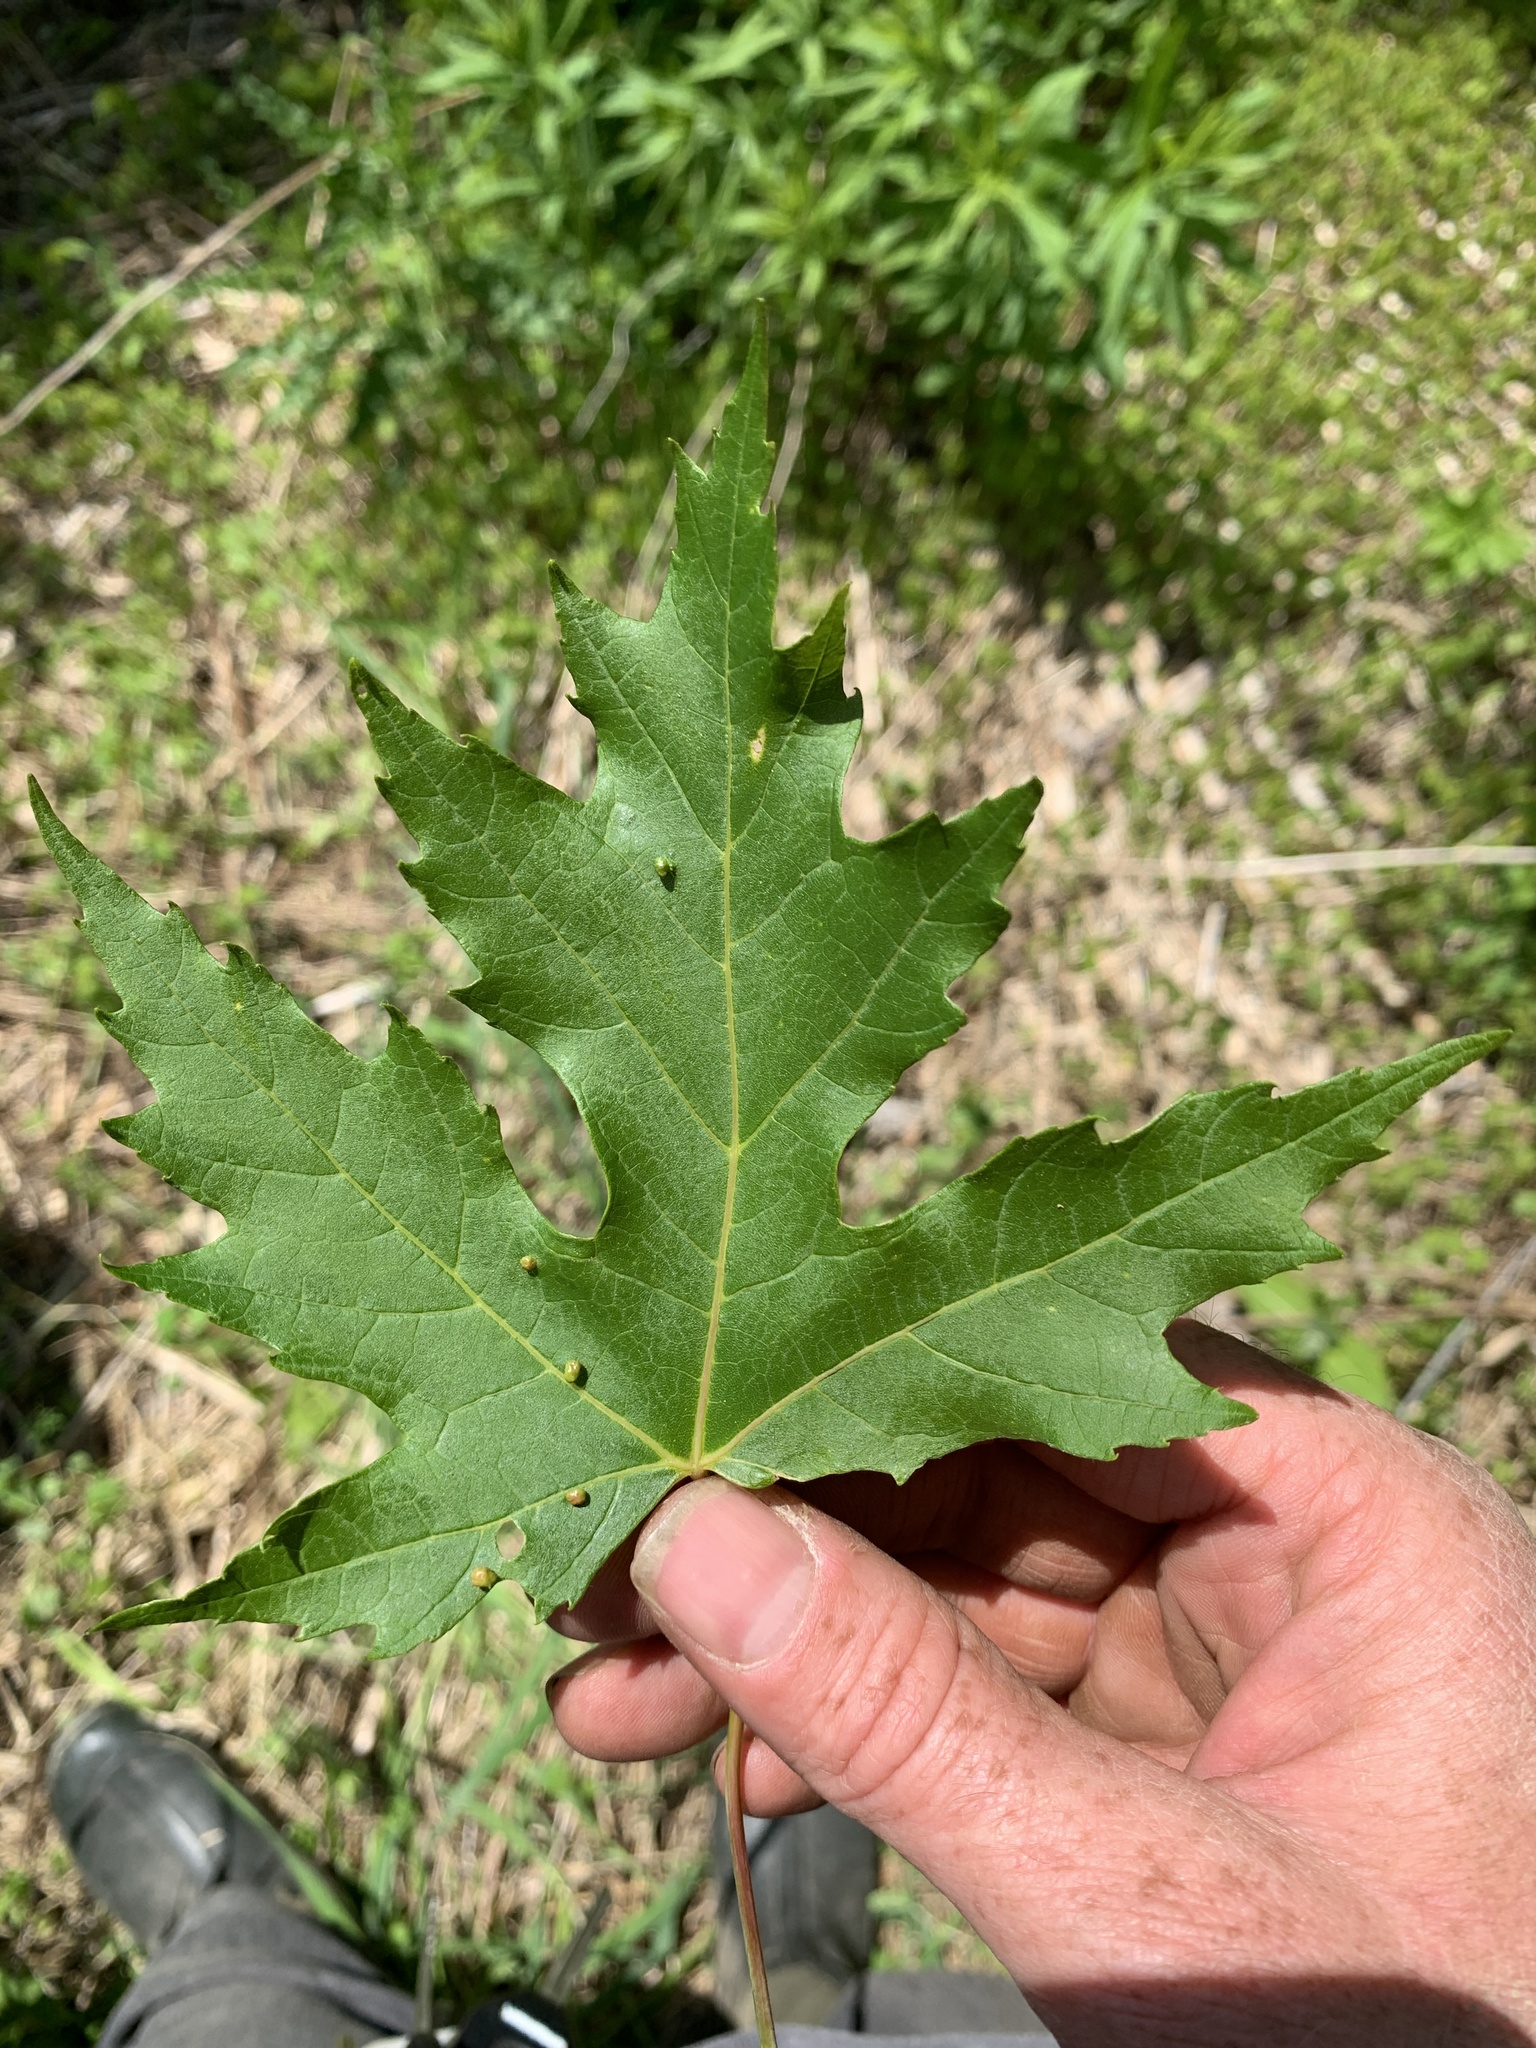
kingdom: Plantae
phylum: Tracheophyta
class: Magnoliopsida
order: Sapindales
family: Sapindaceae
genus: Acer
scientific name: Acer saccharinum
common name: Silver maple
